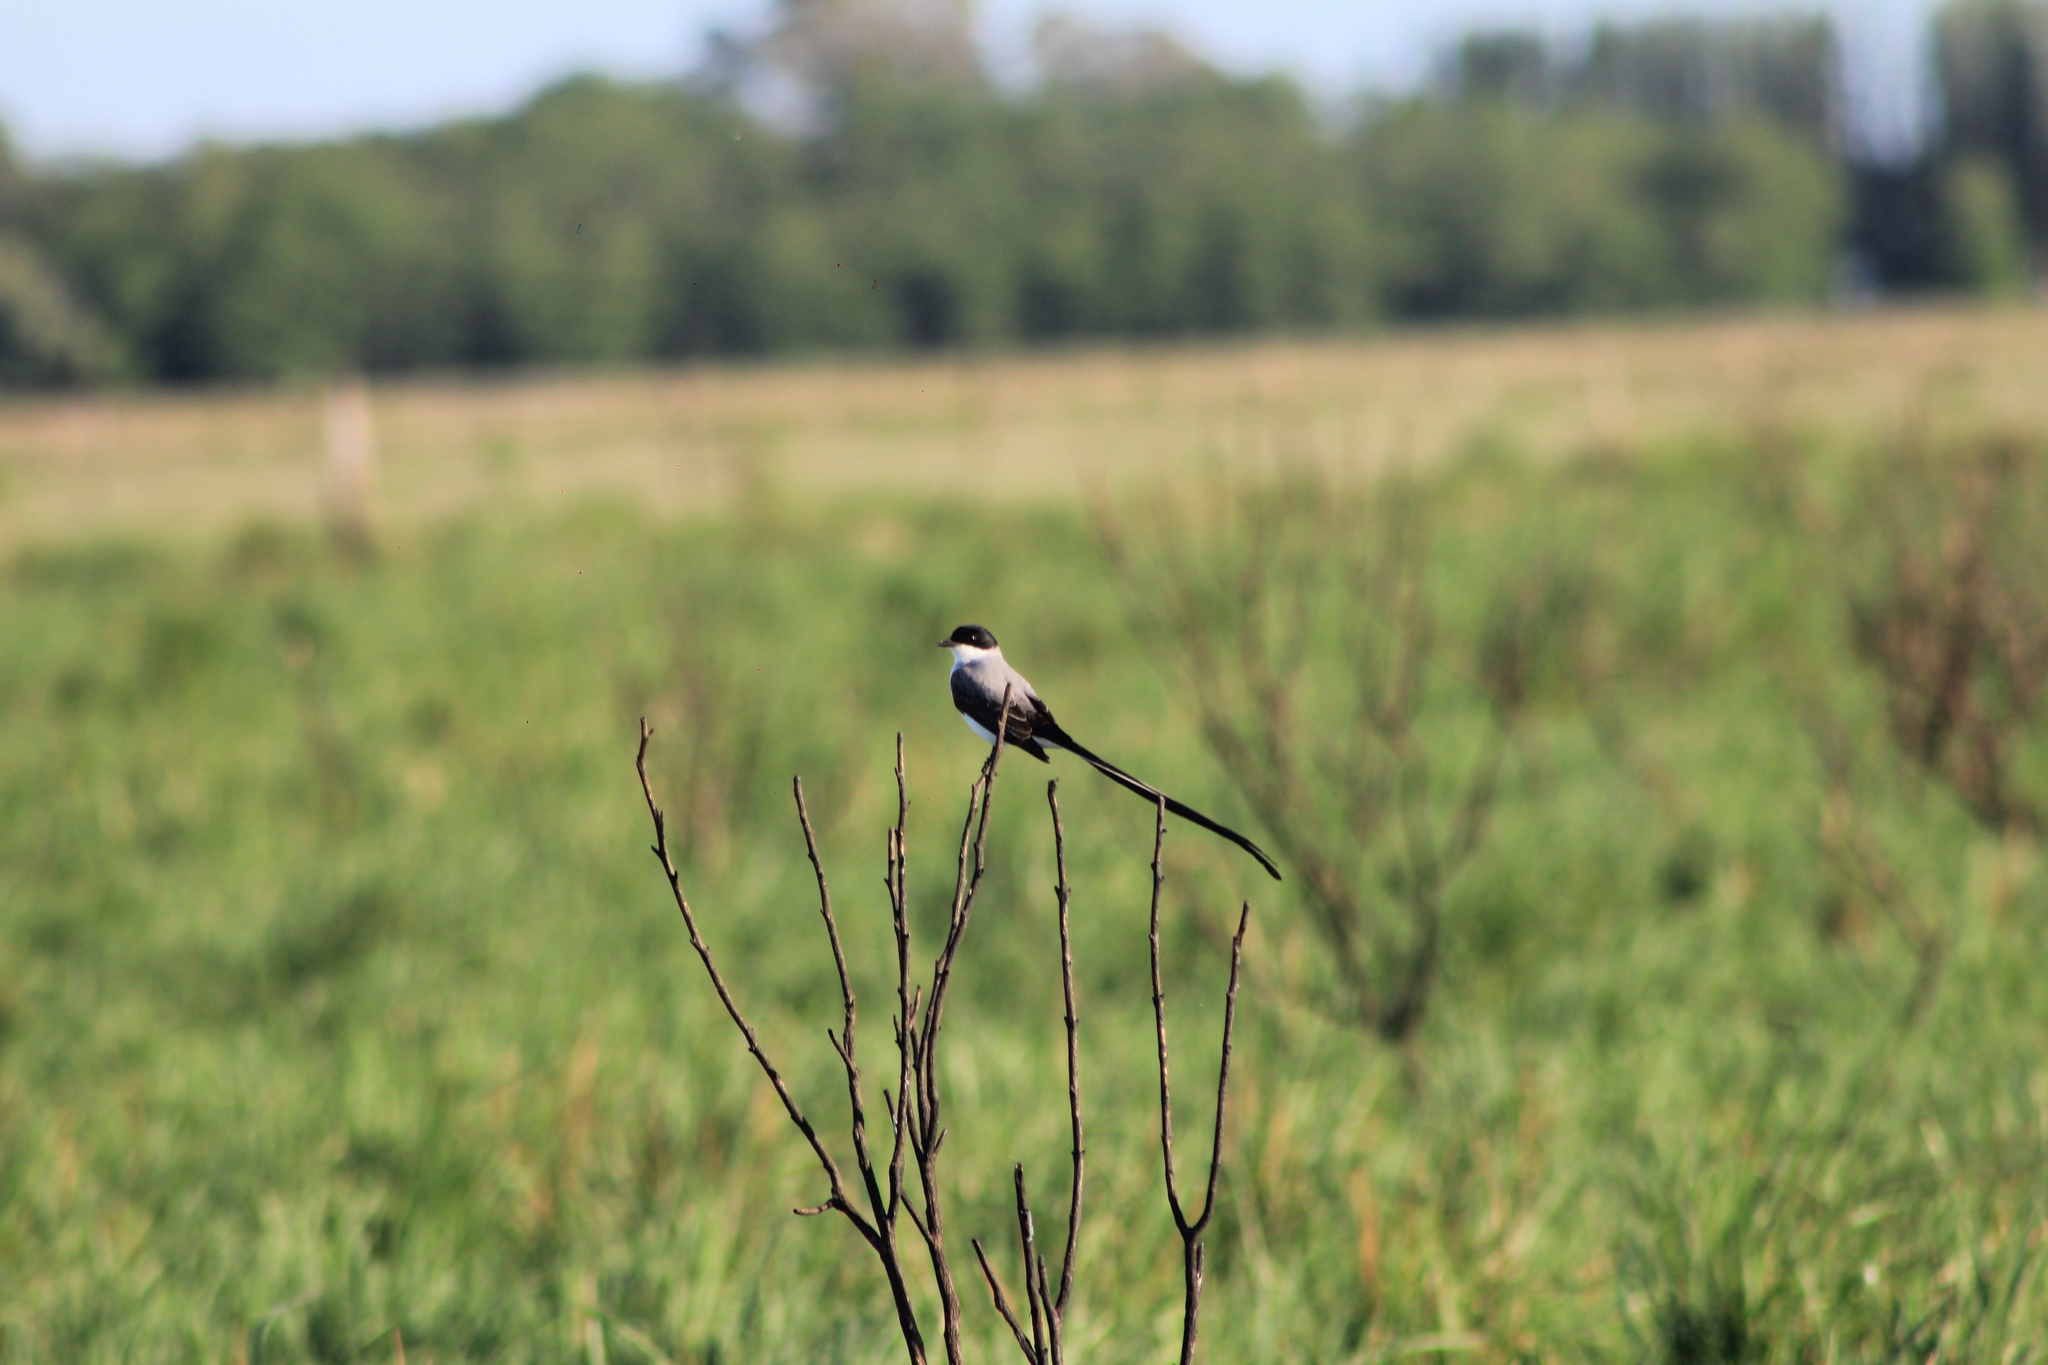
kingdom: Animalia
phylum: Chordata
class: Aves
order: Passeriformes
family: Tyrannidae
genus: Tyrannus
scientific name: Tyrannus savana
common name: Fork-tailed flycatcher
